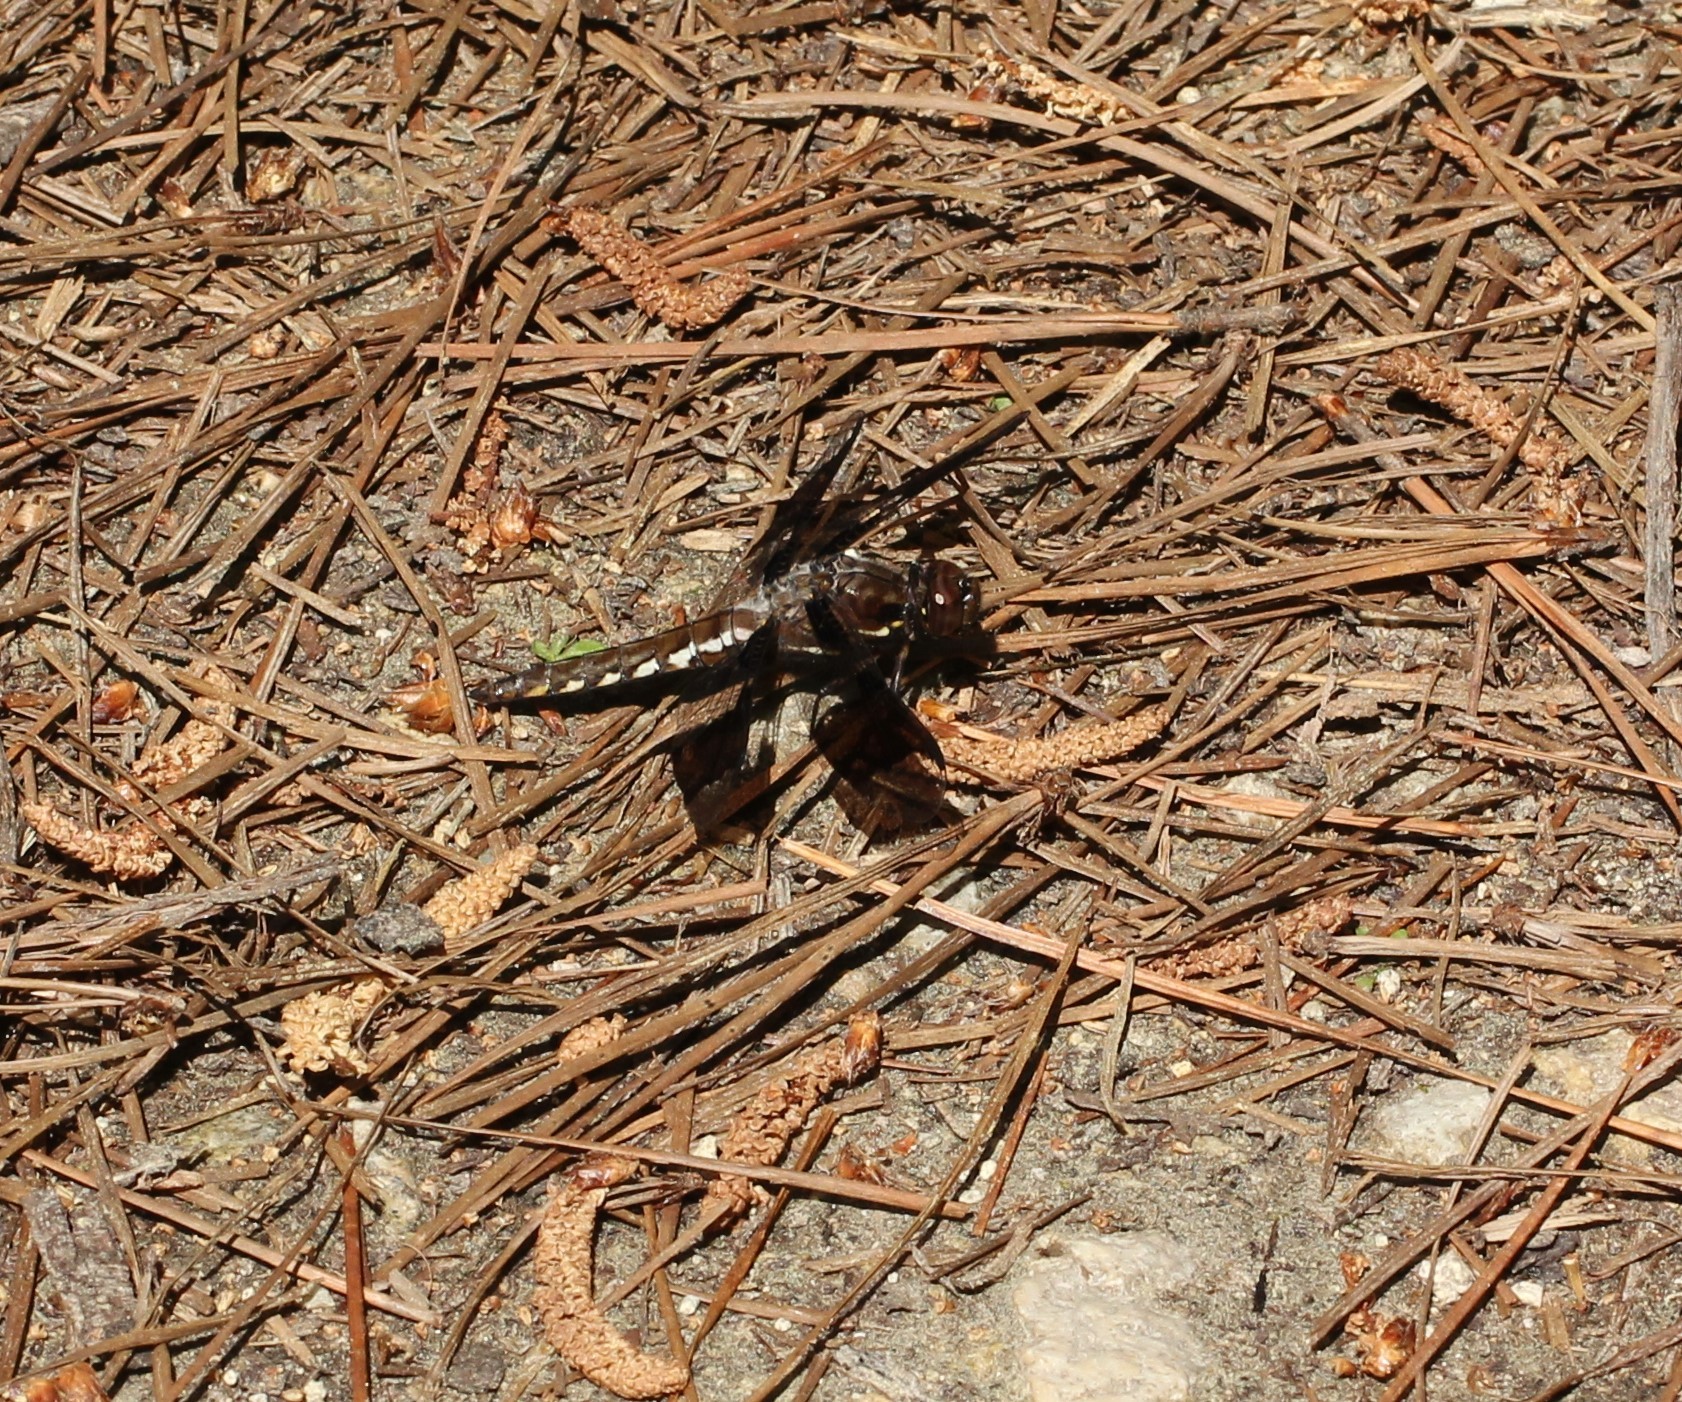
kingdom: Animalia
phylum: Arthropoda
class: Insecta
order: Odonata
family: Libellulidae
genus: Plathemis
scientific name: Plathemis lydia
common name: Common whitetail
